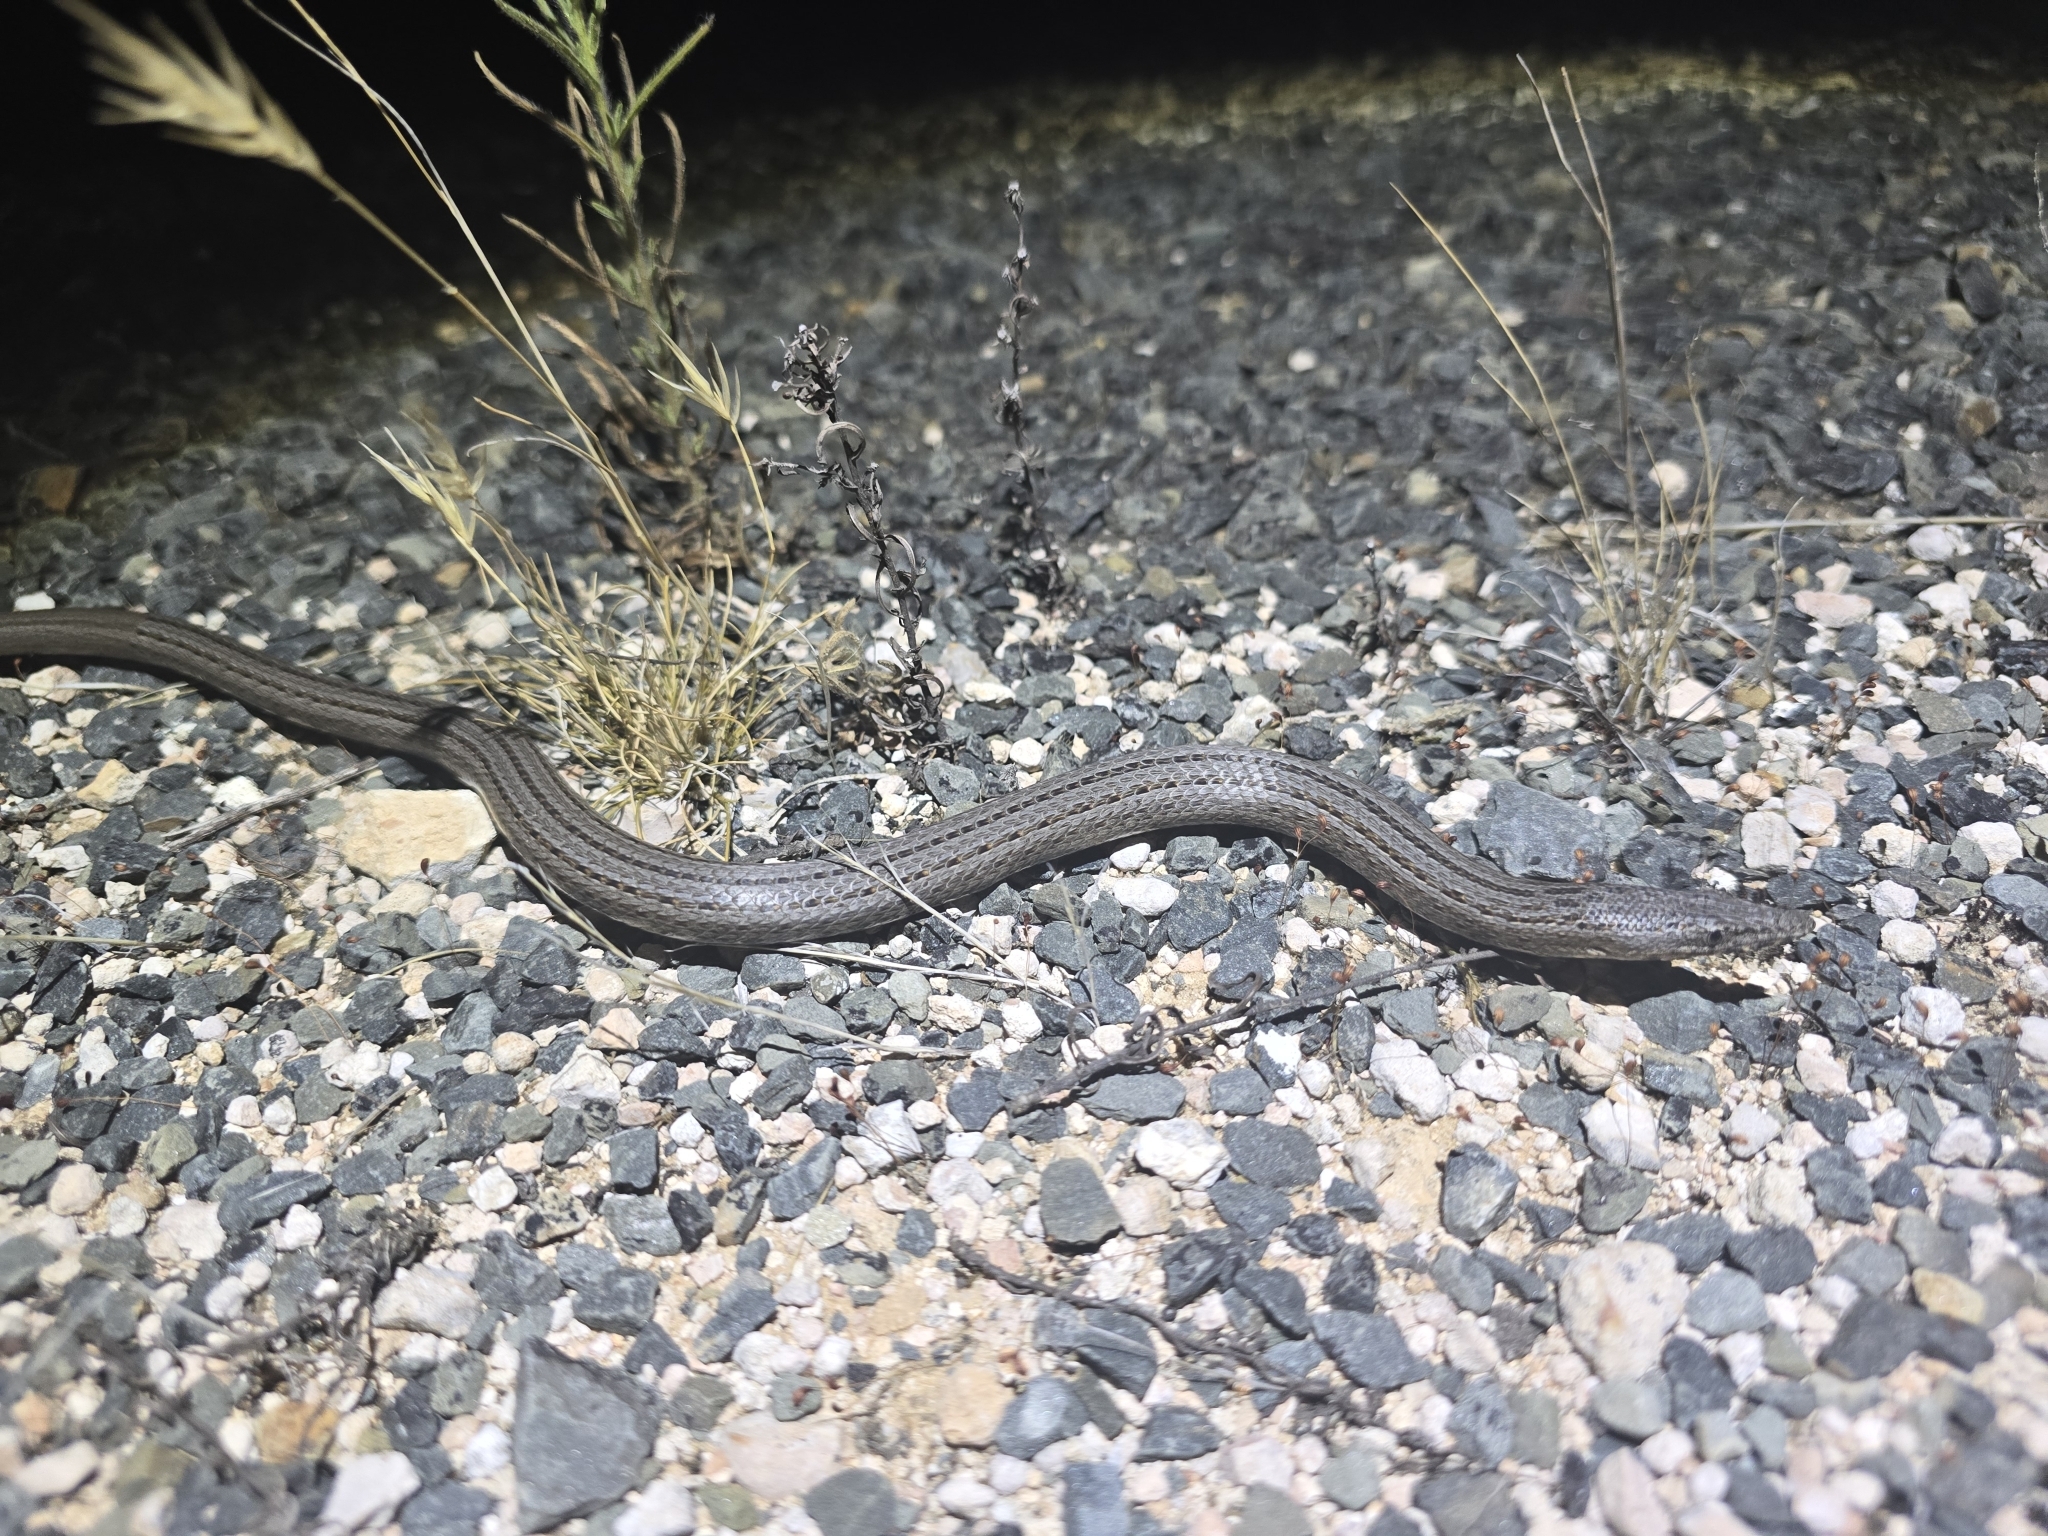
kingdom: Animalia
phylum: Chordata
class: Squamata
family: Pygopodidae
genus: Lialis
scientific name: Lialis burtonis
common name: Burton's legless lizard
